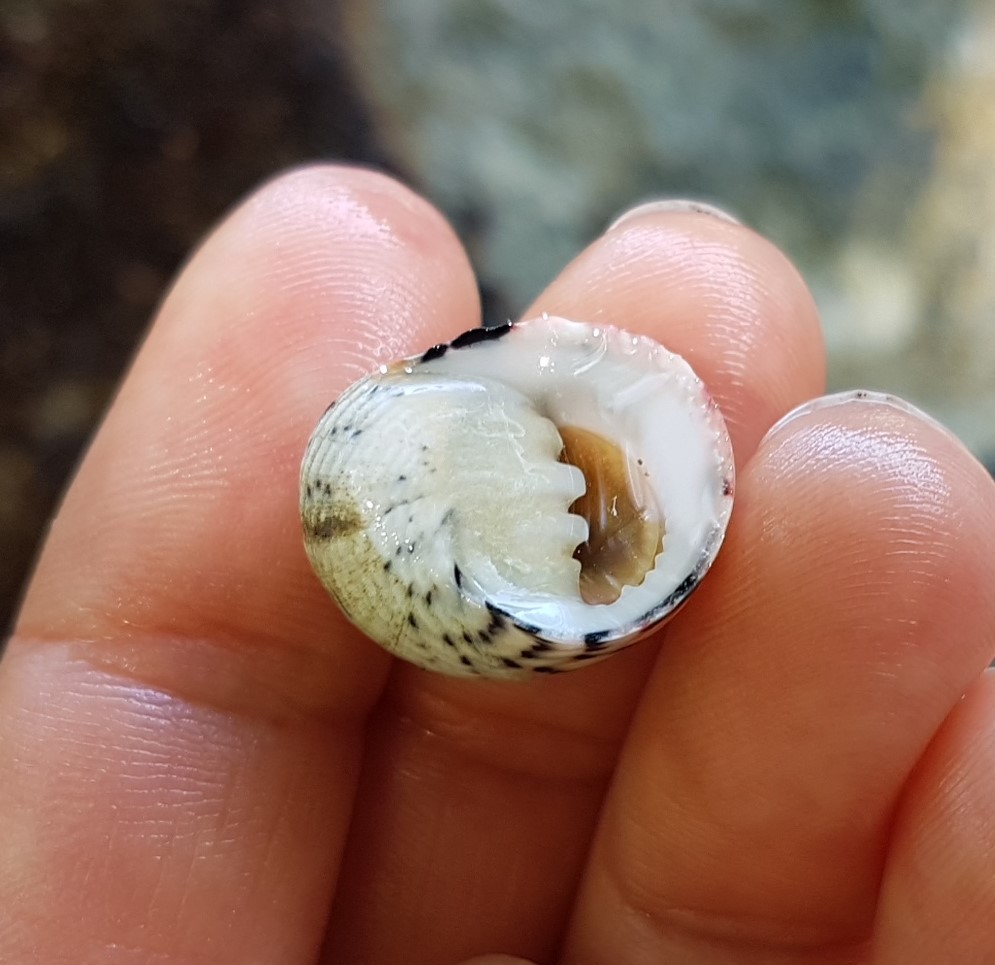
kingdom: Animalia
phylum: Mollusca
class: Gastropoda
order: Cycloneritida
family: Neritidae
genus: Nerita
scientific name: Nerita versicolor
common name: Four-tooth nerite
